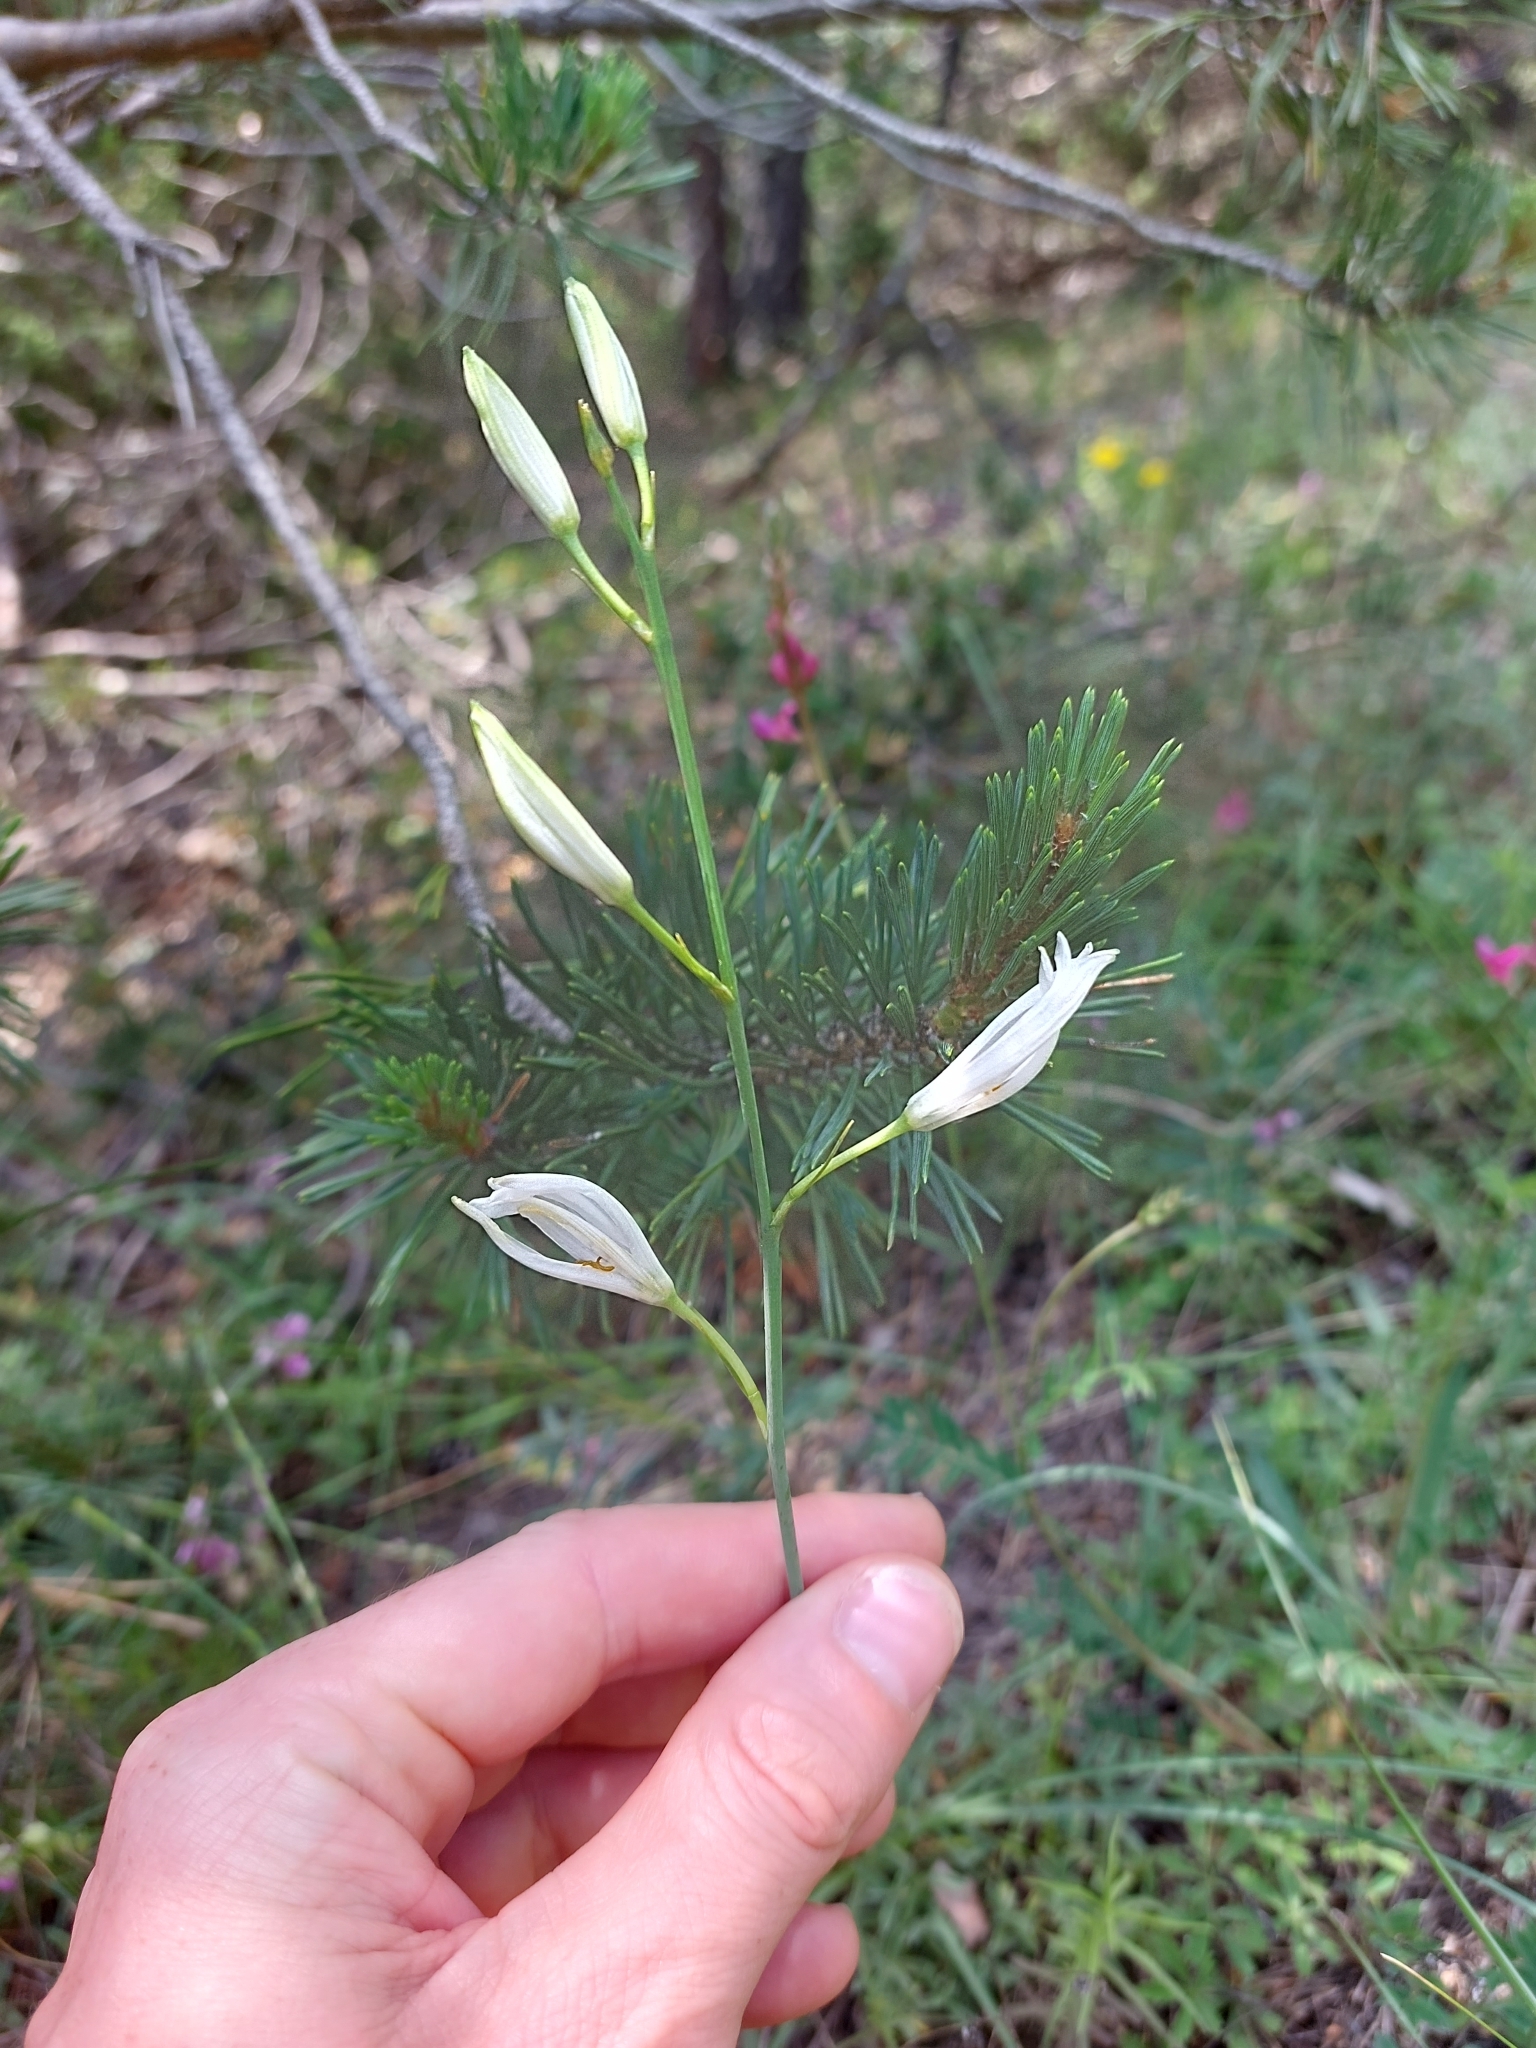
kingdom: Plantae
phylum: Tracheophyta
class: Liliopsida
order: Asparagales
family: Asparagaceae
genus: Anthericum
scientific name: Anthericum liliago
